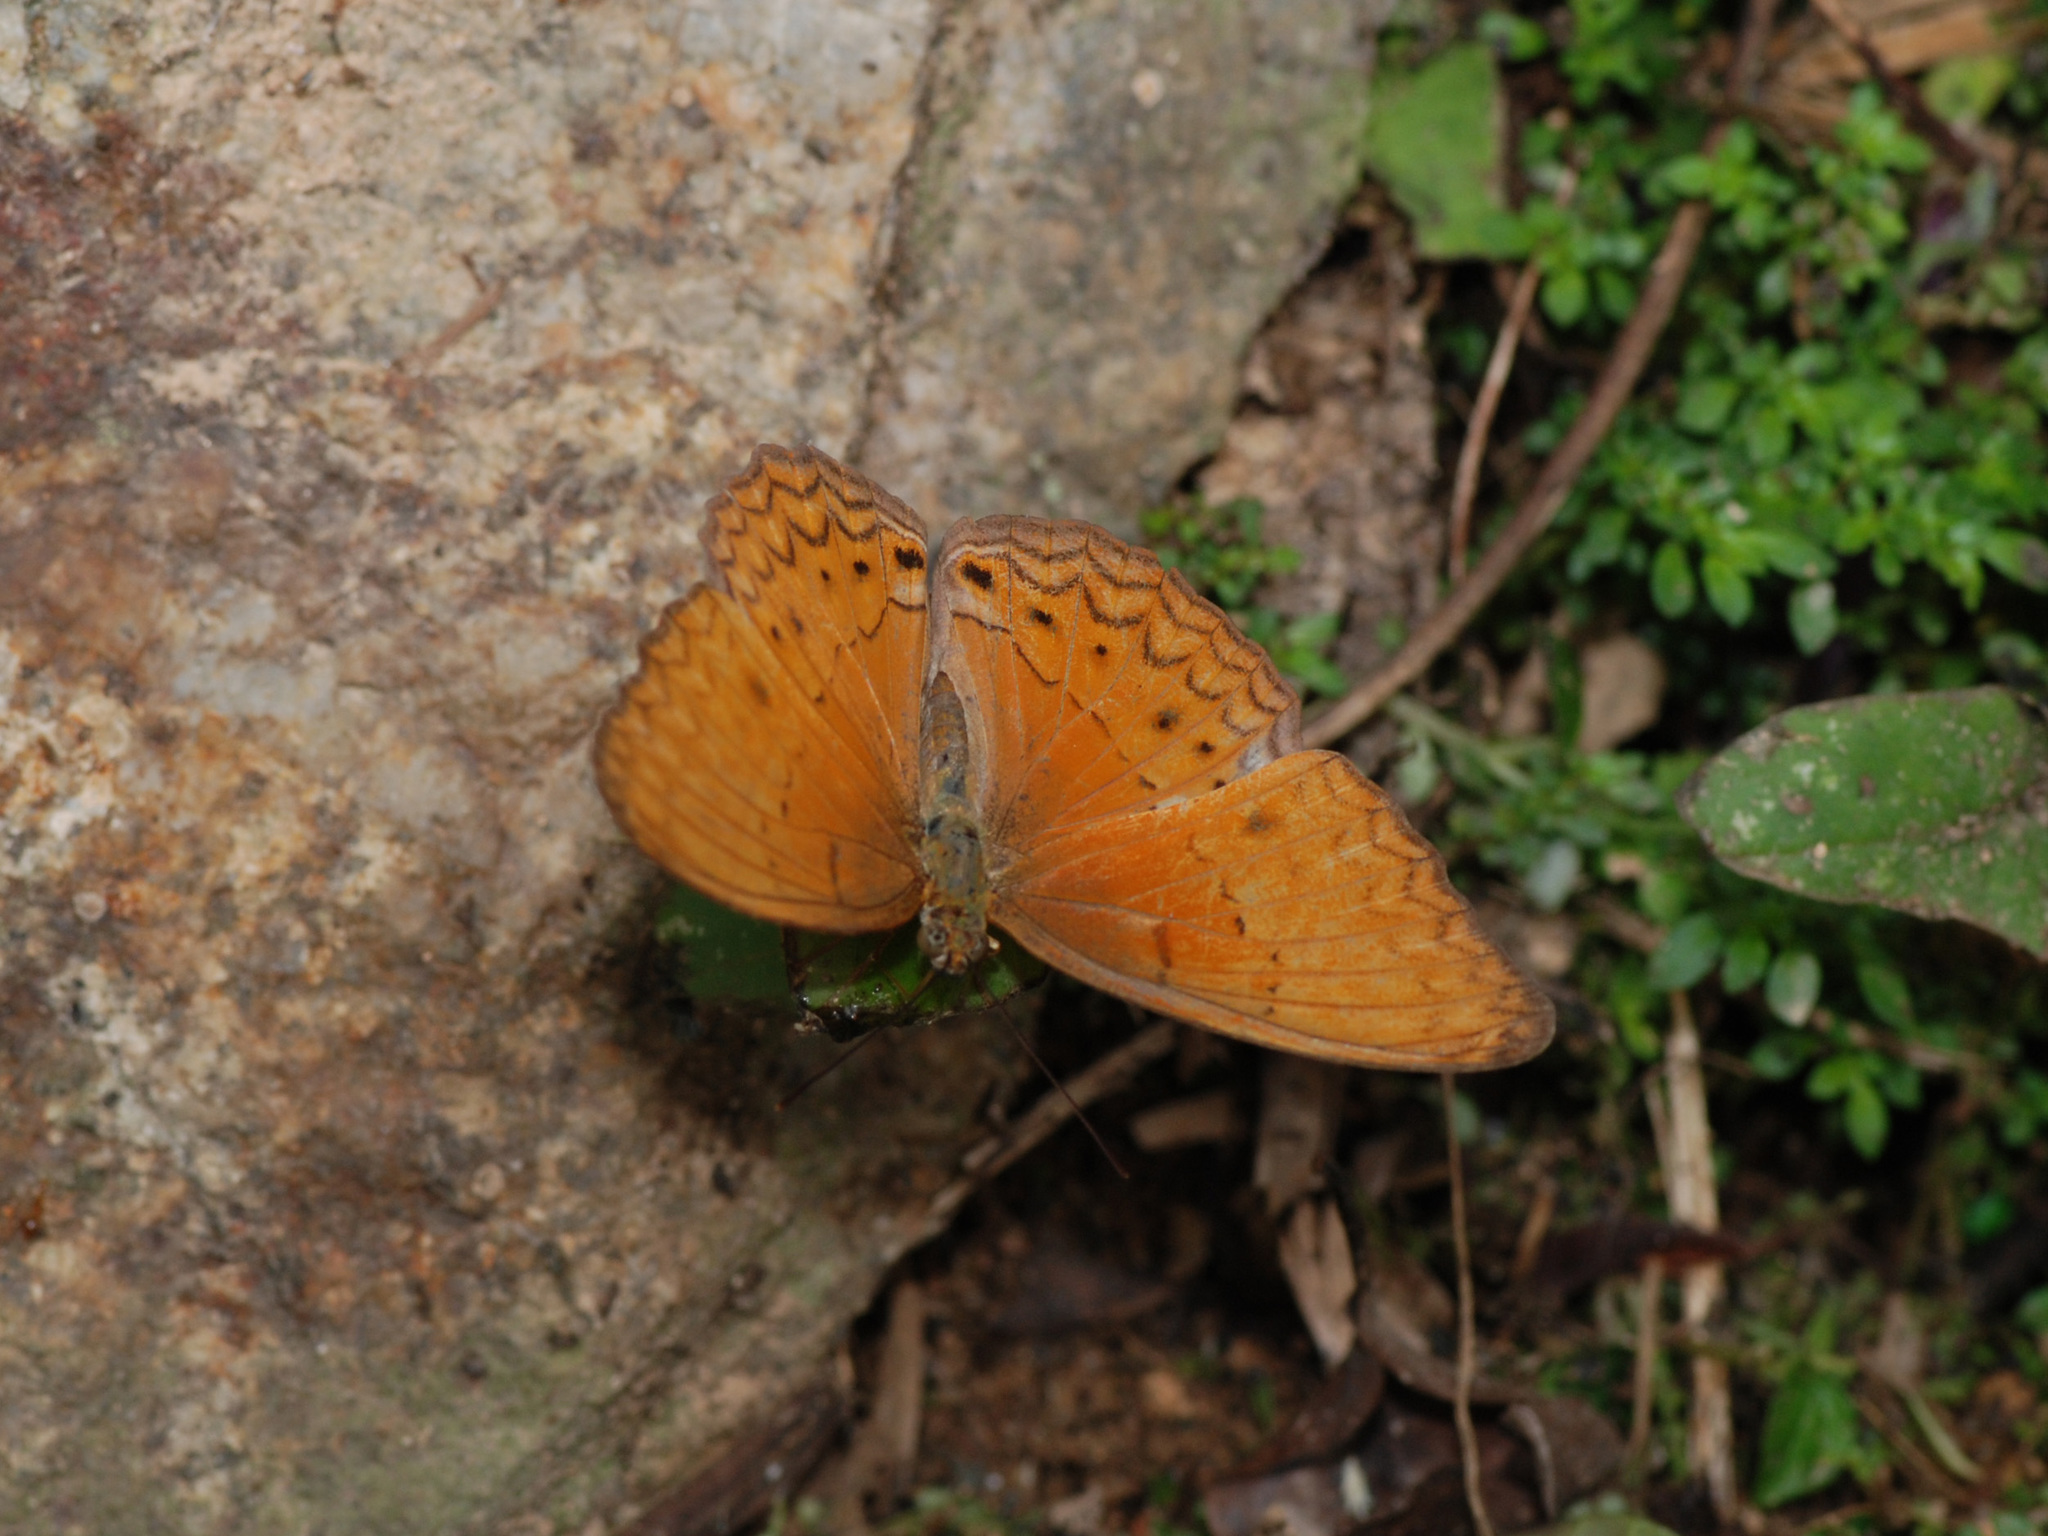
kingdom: Animalia
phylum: Arthropoda
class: Insecta
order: Lepidoptera
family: Nymphalidae
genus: Cirrochroa
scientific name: Cirrochroa tyche
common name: Common yeoman
